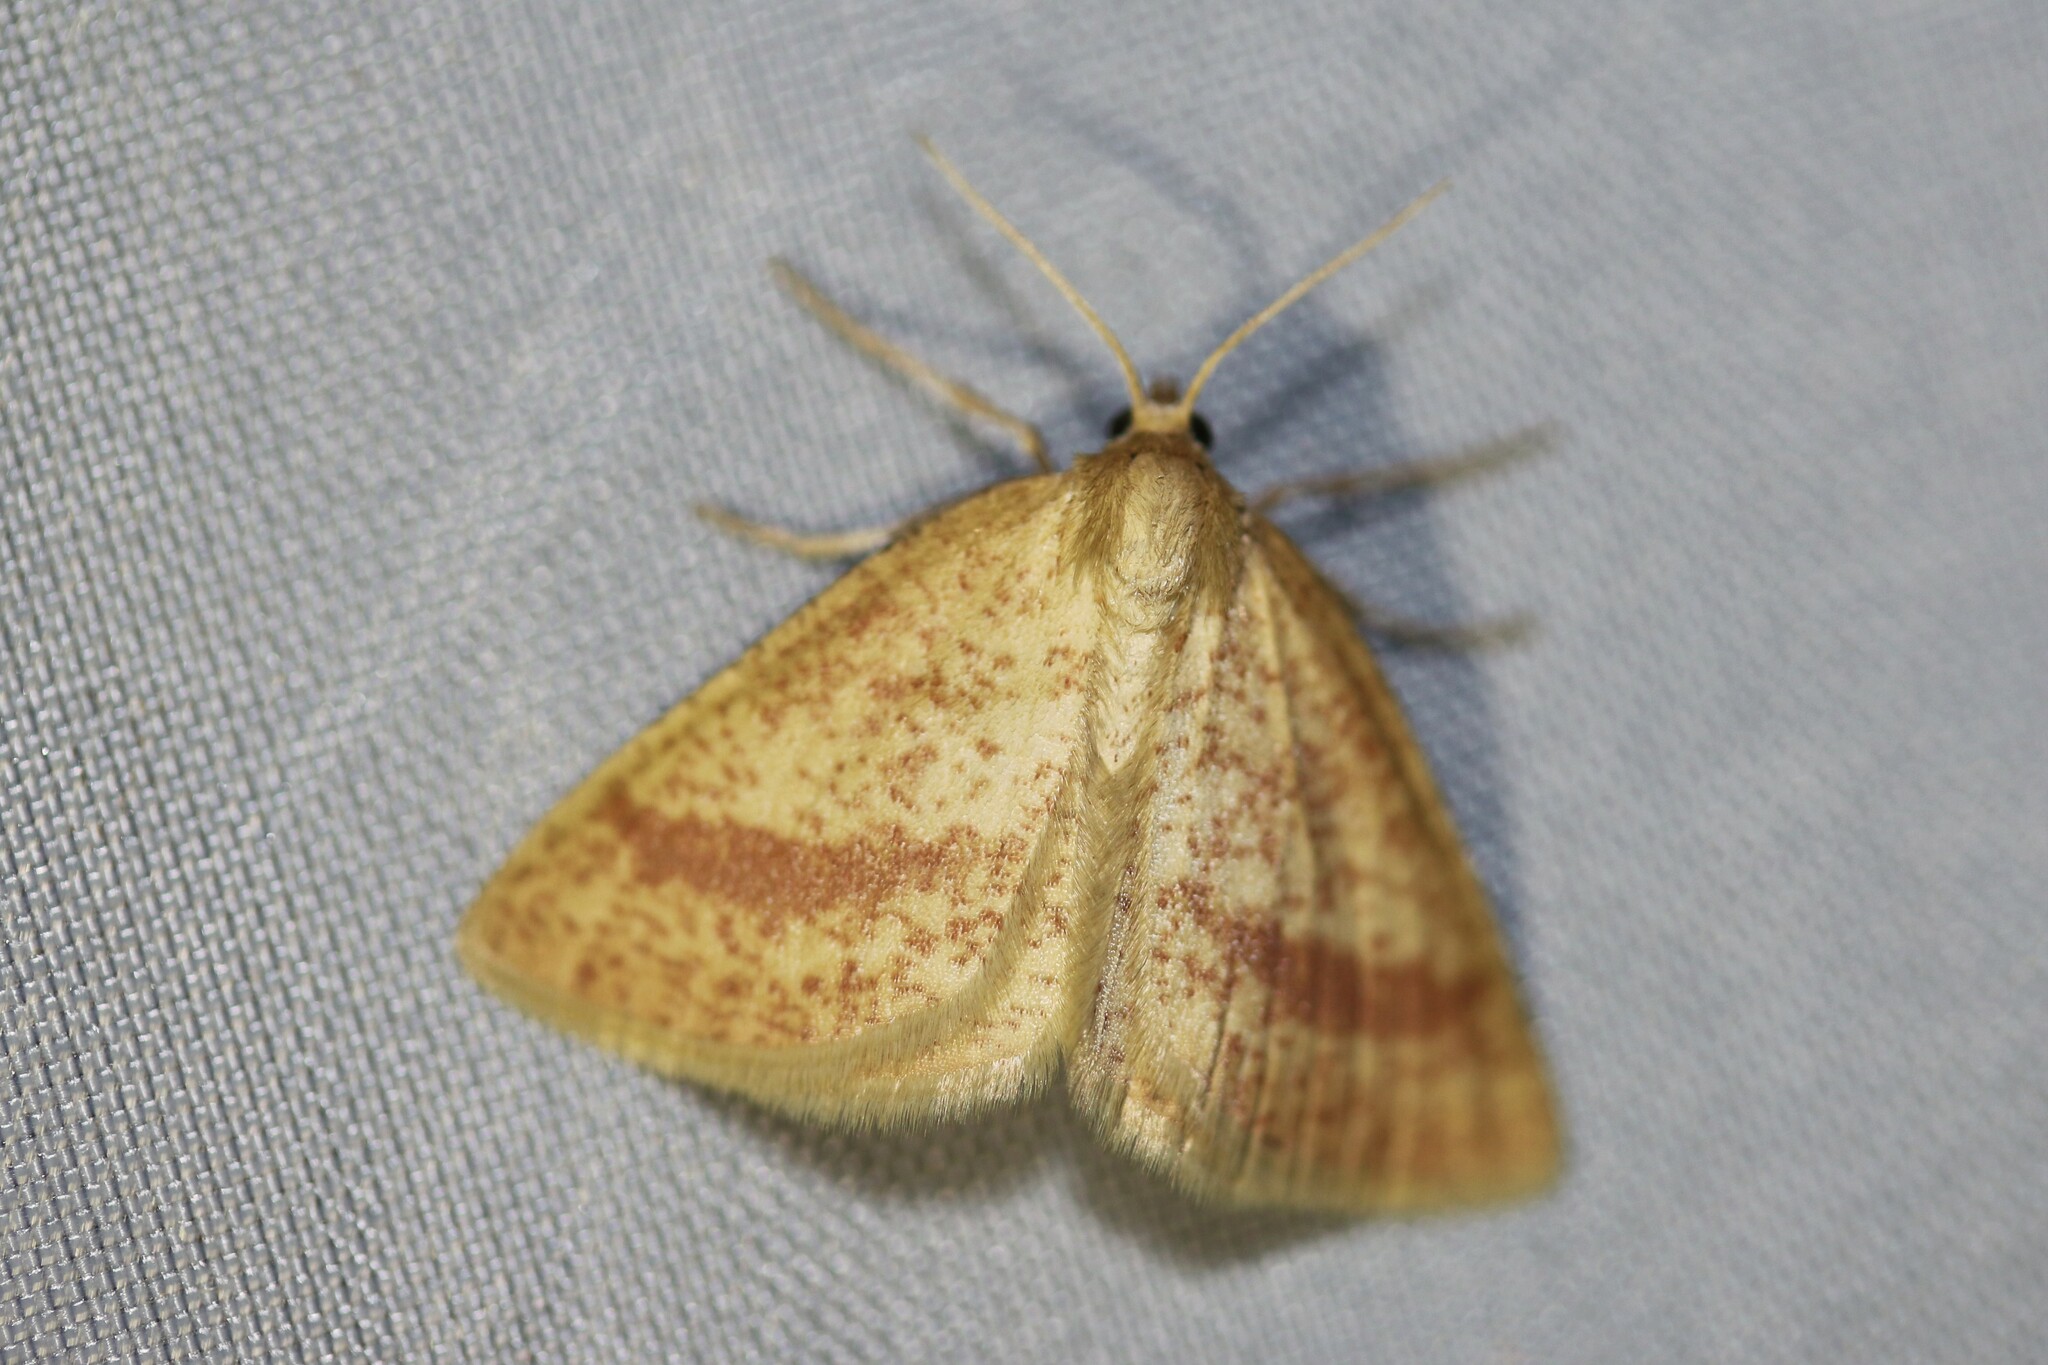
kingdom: Animalia
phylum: Arthropoda
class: Insecta
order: Lepidoptera
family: Geometridae
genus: Aplasta
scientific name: Aplasta ononaria
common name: Rest harrow
